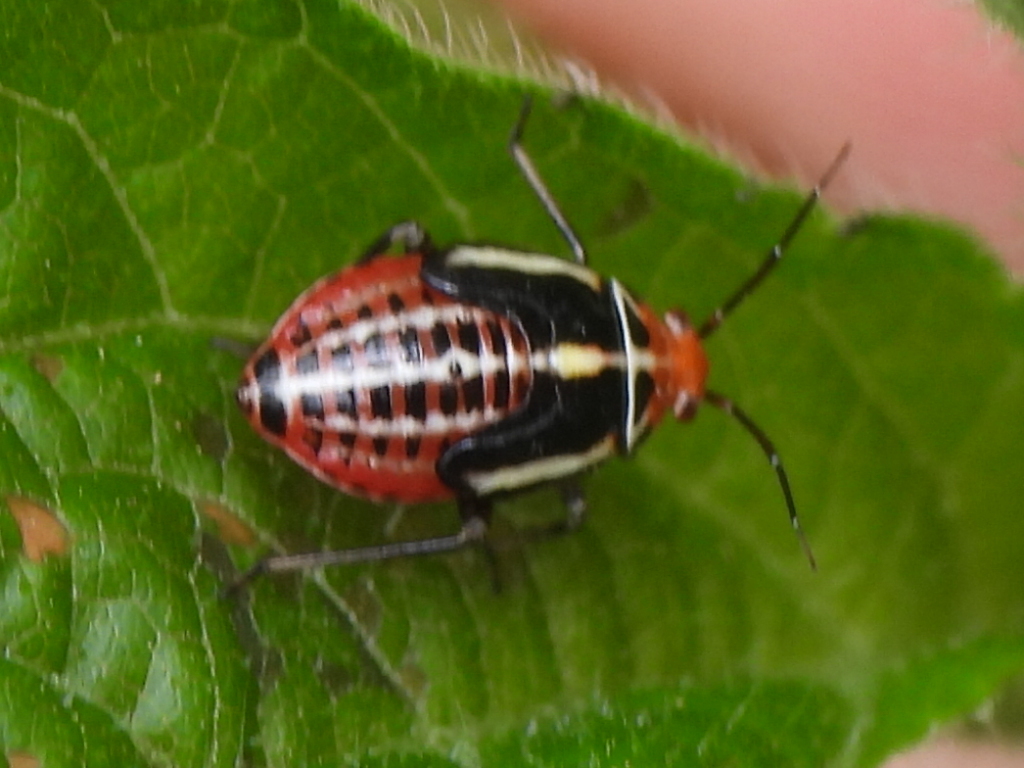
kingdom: Animalia
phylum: Arthropoda
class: Insecta
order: Hemiptera
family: Miridae
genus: Poecilocapsus
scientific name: Poecilocapsus lineatus
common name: Four-lined plant bug
